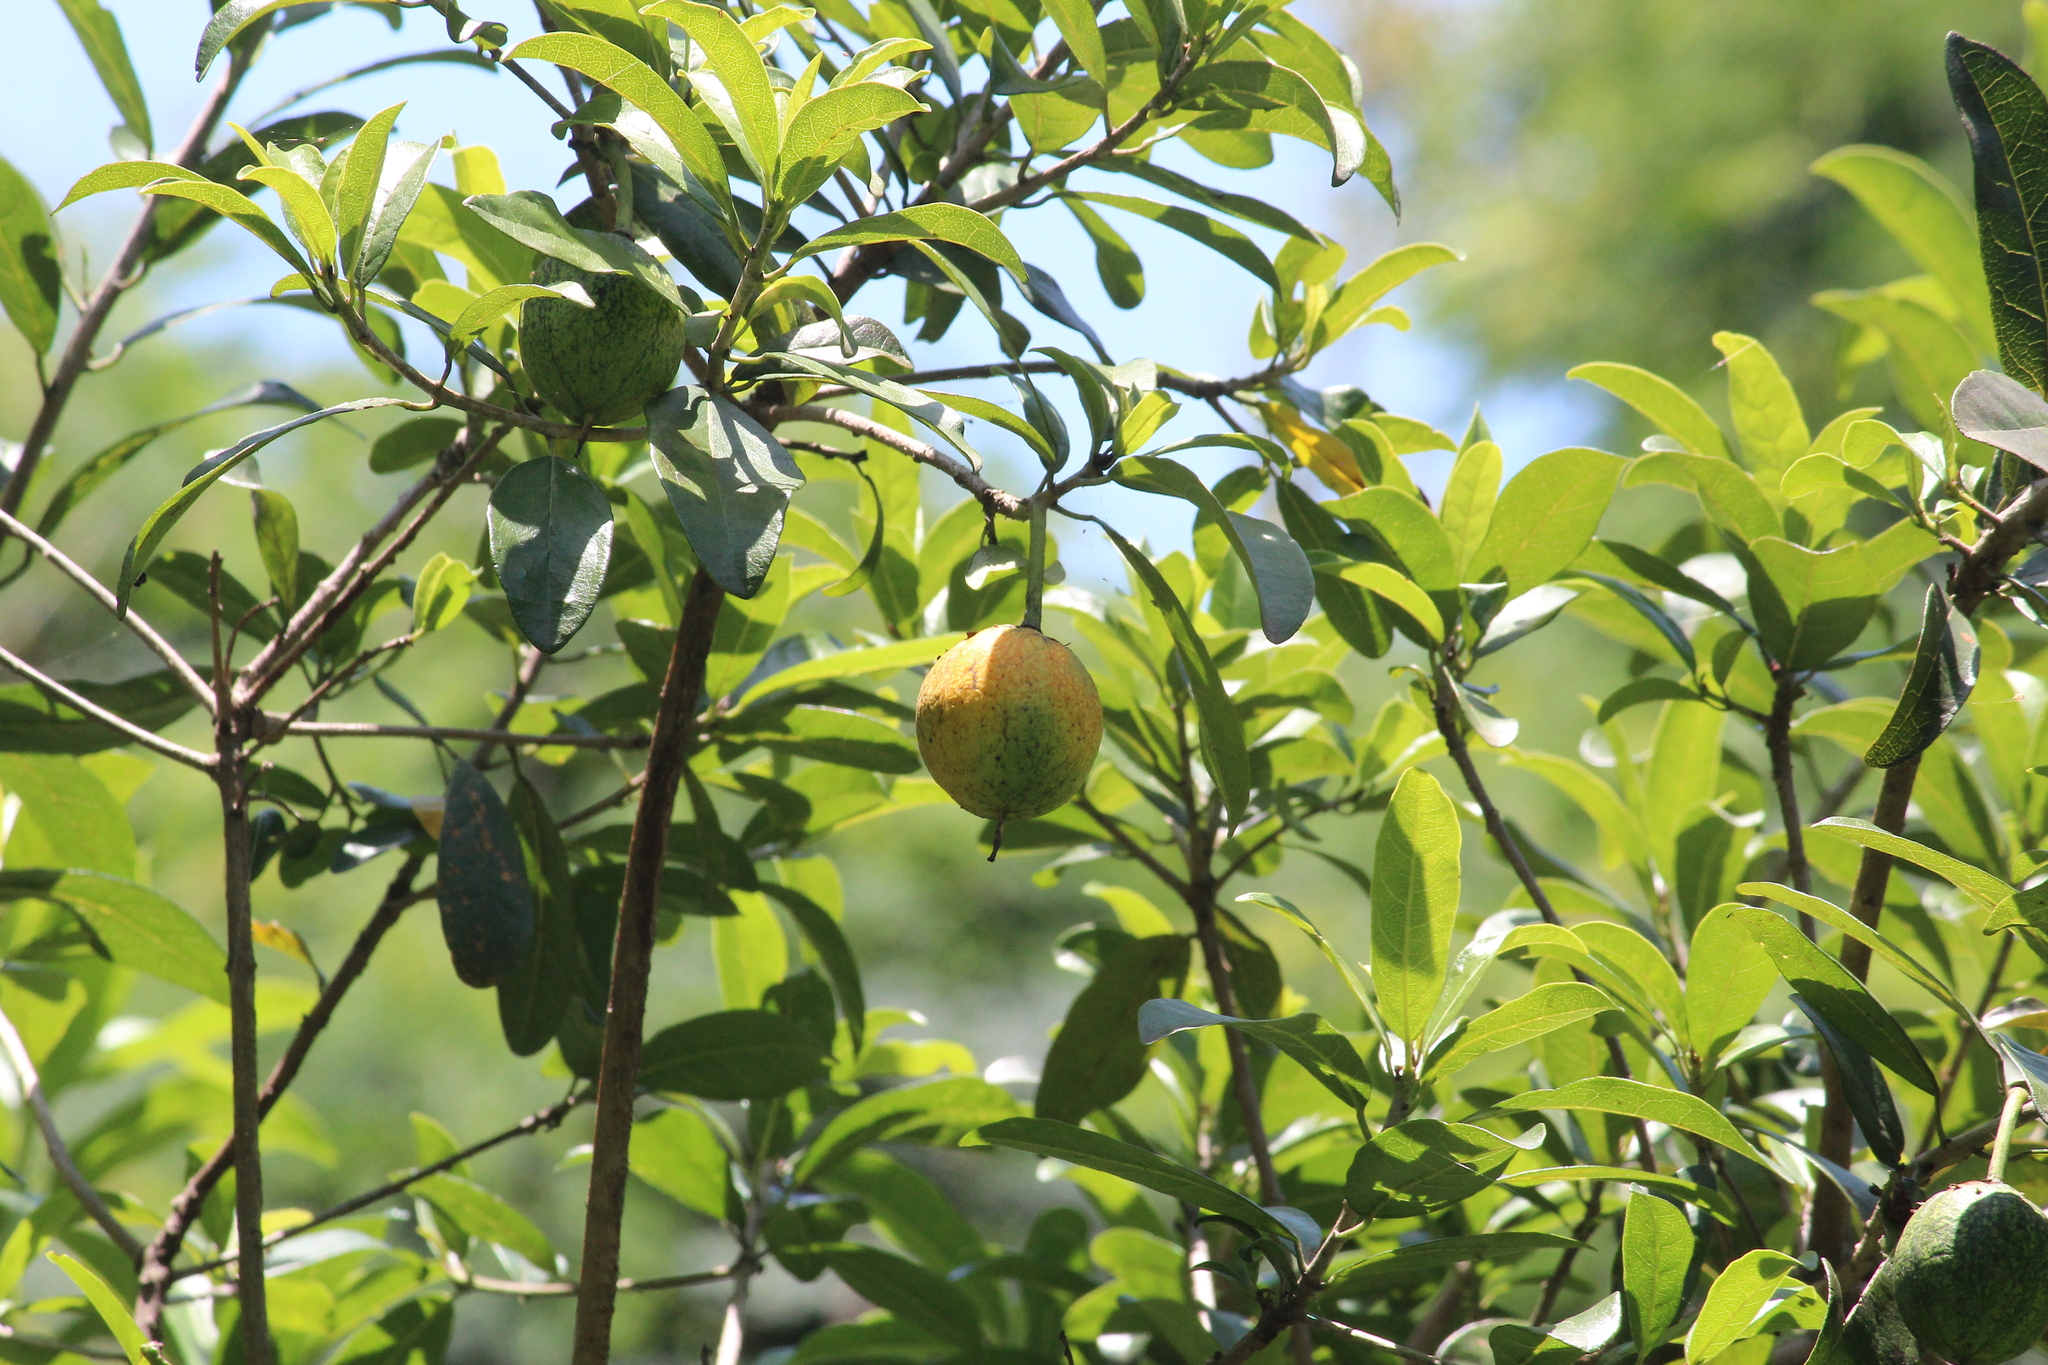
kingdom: Plantae
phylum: Tracheophyta
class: Magnoliopsida
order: Malpighiales
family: Achariaceae
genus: Xylotheca
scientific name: Xylotheca kraussiana
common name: African dog rose
